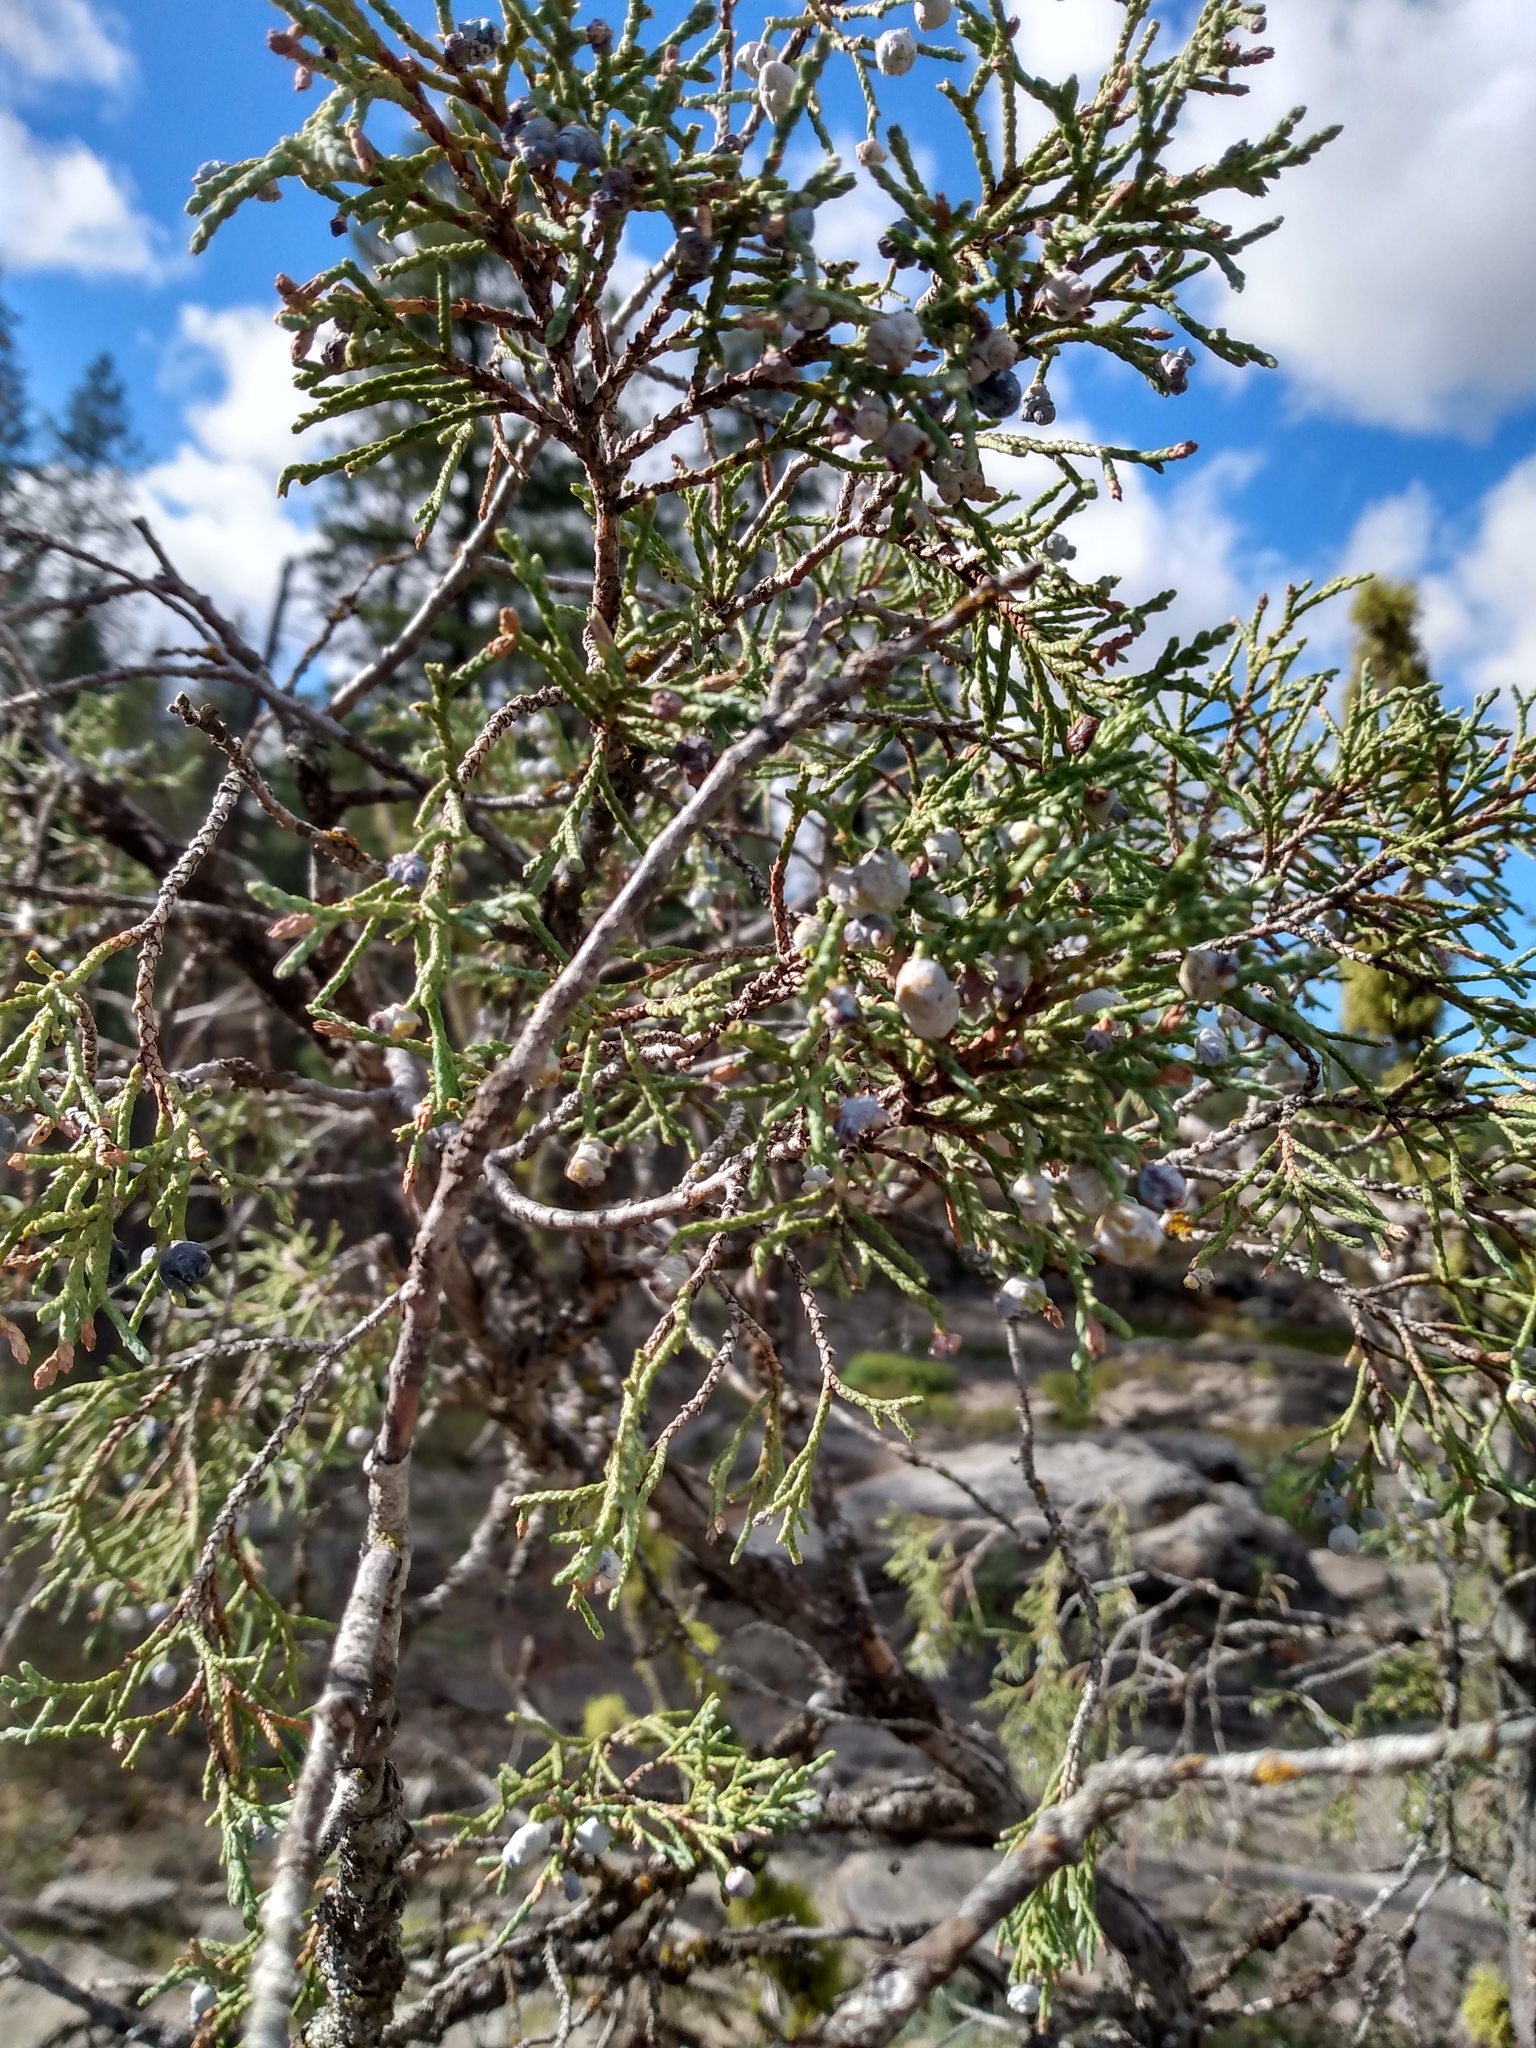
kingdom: Plantae
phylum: Tracheophyta
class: Pinopsida
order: Pinales
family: Cupressaceae
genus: Juniperus
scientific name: Juniperus scopulorum
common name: Rocky mountain juniper
